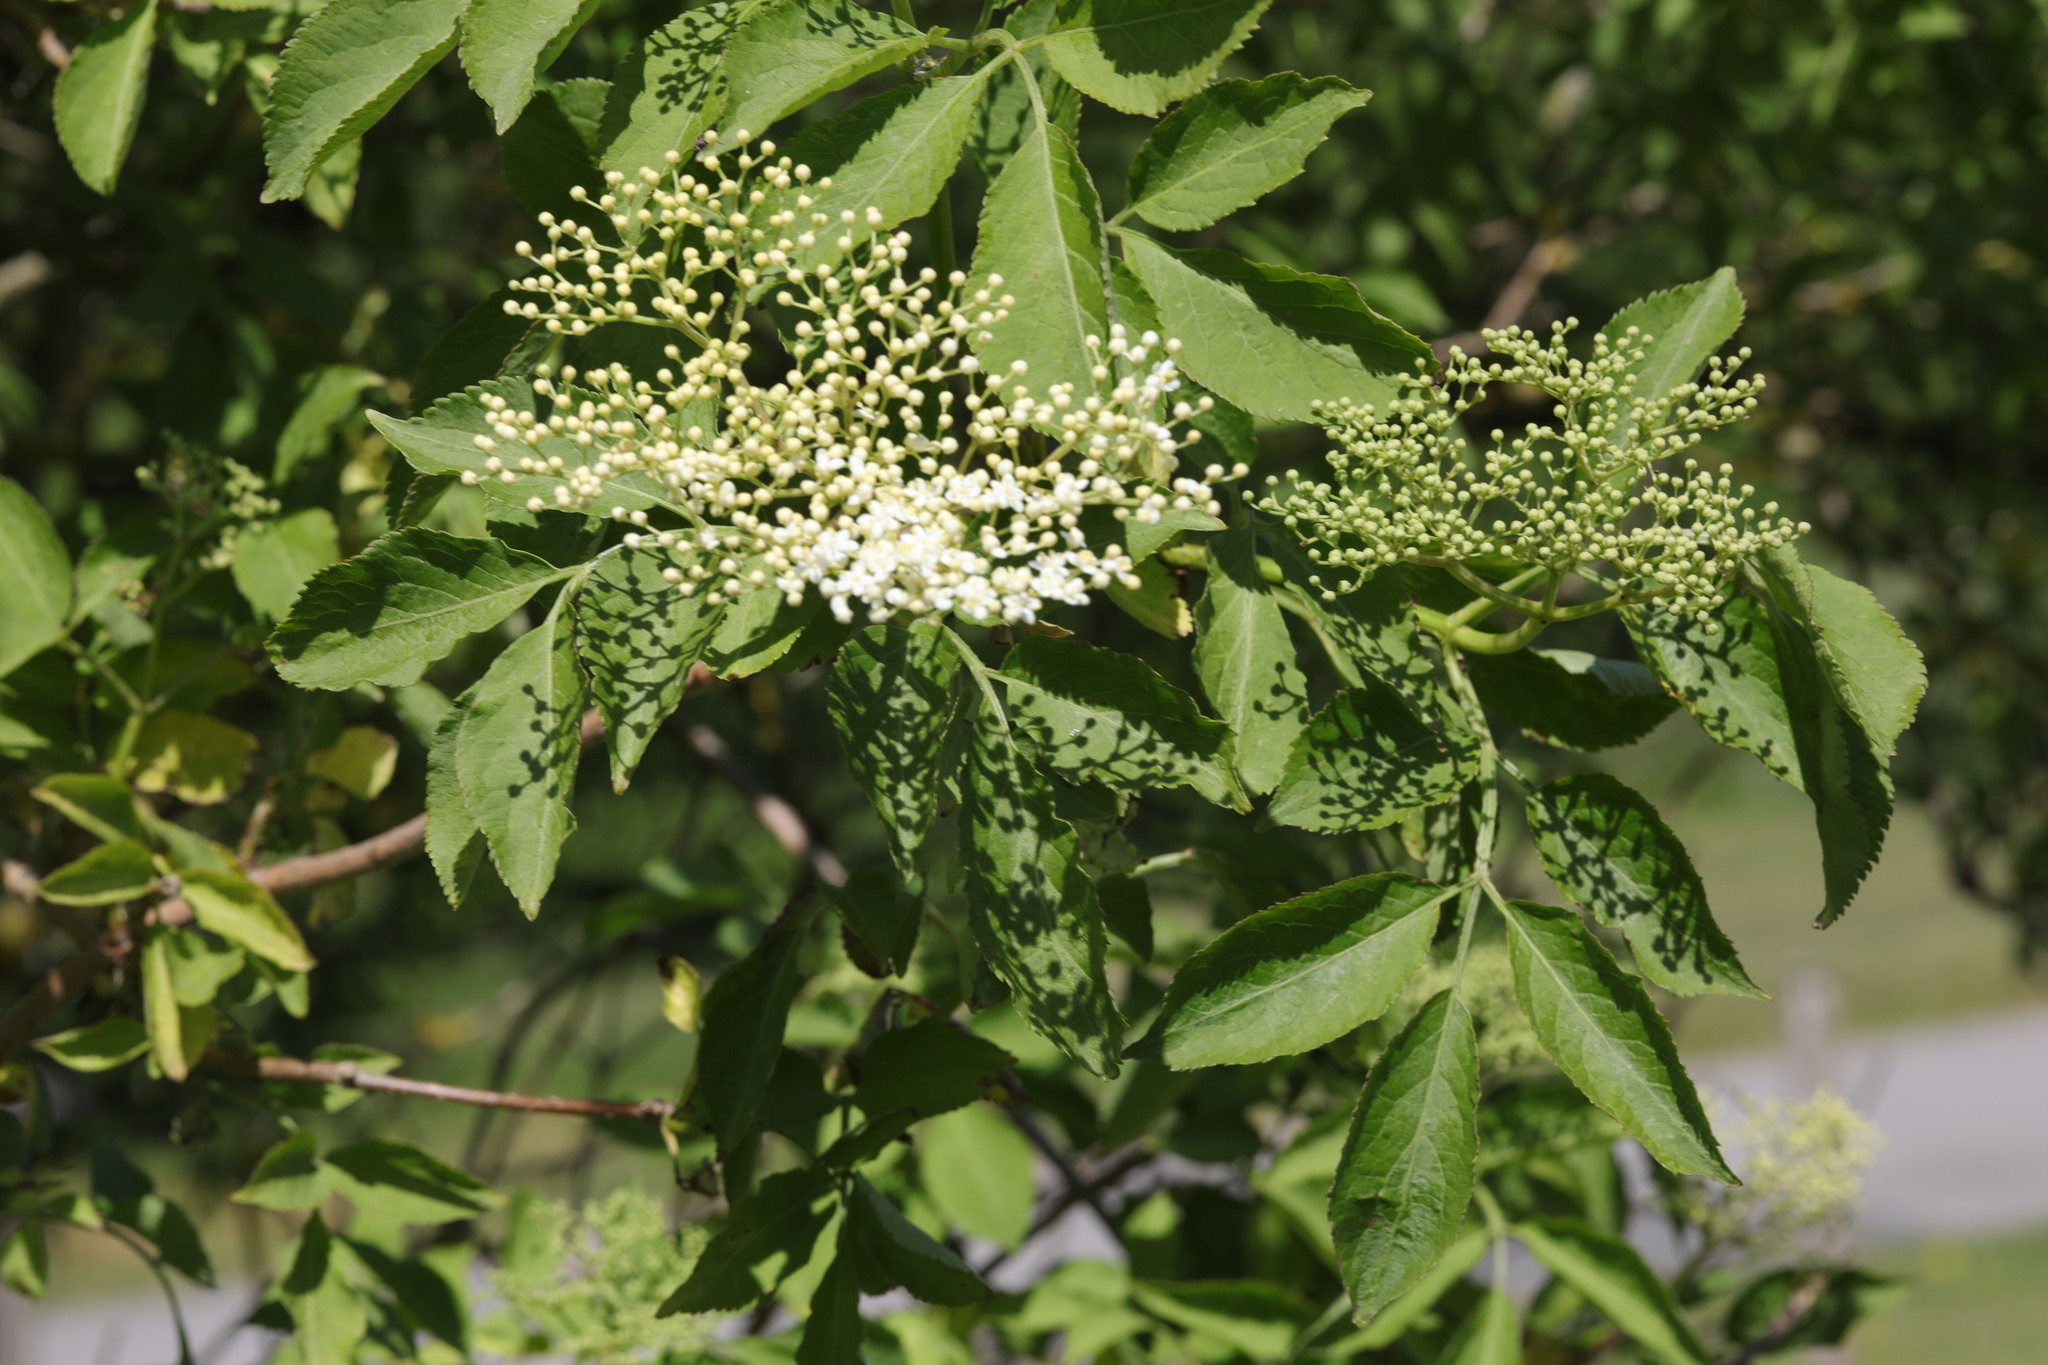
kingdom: Plantae
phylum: Tracheophyta
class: Magnoliopsida
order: Dipsacales
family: Viburnaceae
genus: Sambucus
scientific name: Sambucus nigra
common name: Elder
